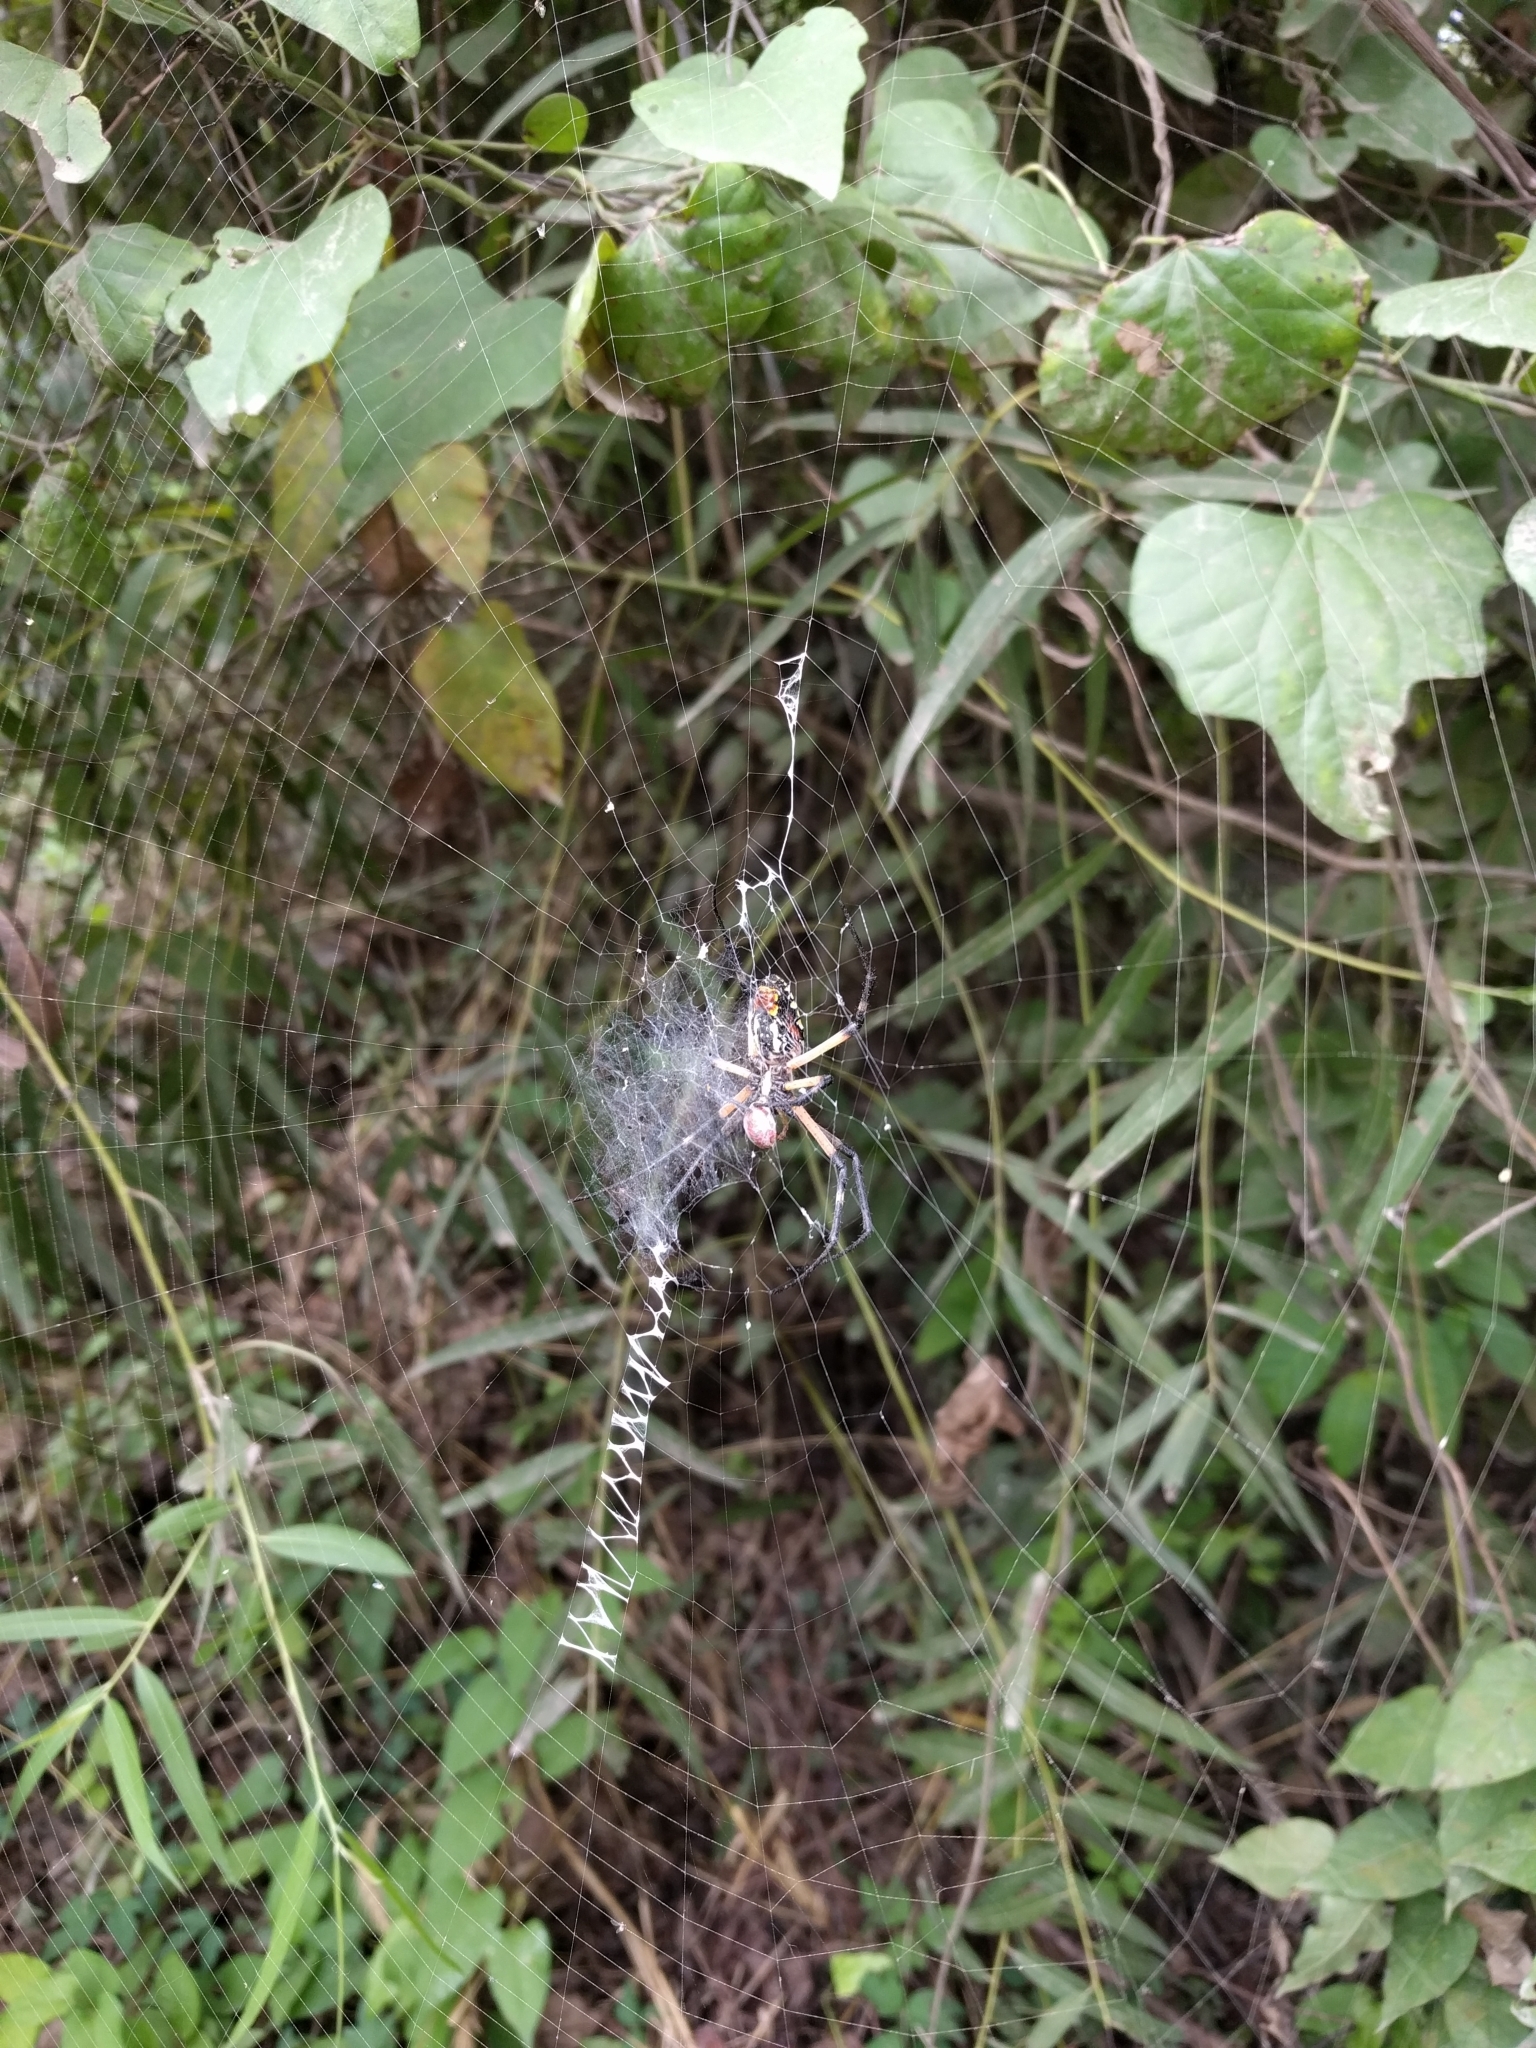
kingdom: Animalia
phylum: Arthropoda
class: Arachnida
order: Araneae
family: Araneidae
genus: Argiope
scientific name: Argiope aurantia
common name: Orb weavers
